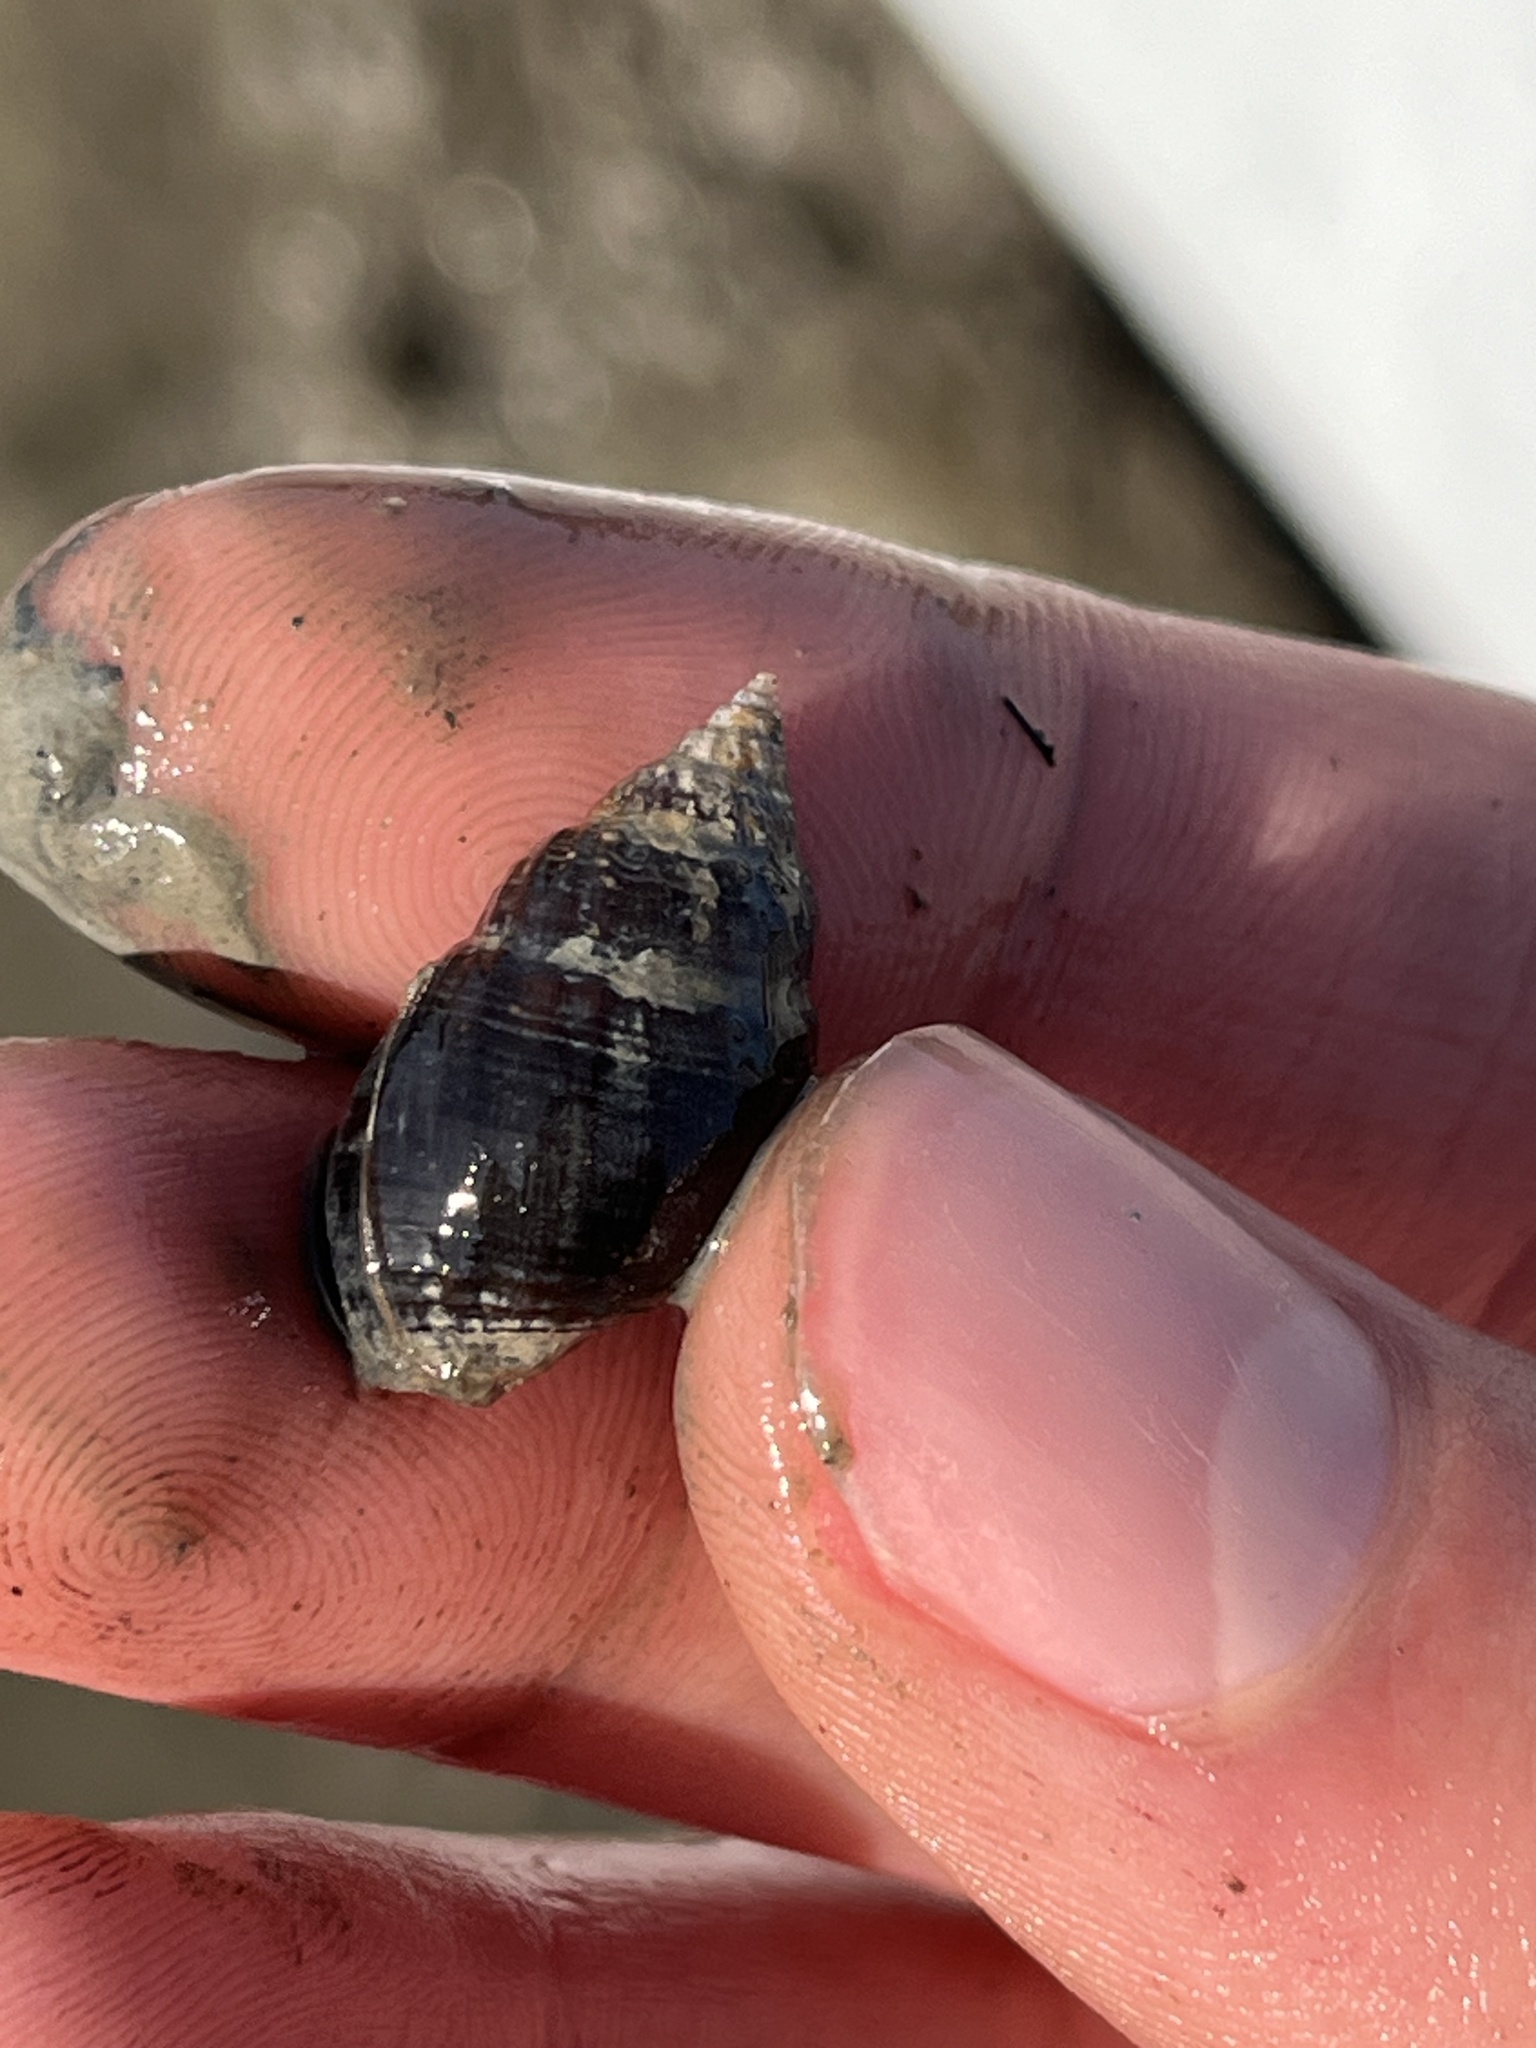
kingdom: Animalia
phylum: Mollusca
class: Gastropoda
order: Neogastropoda
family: Nassariidae
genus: Ilyanassa
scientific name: Ilyanassa obsoleta
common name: Eastern mudsnail
